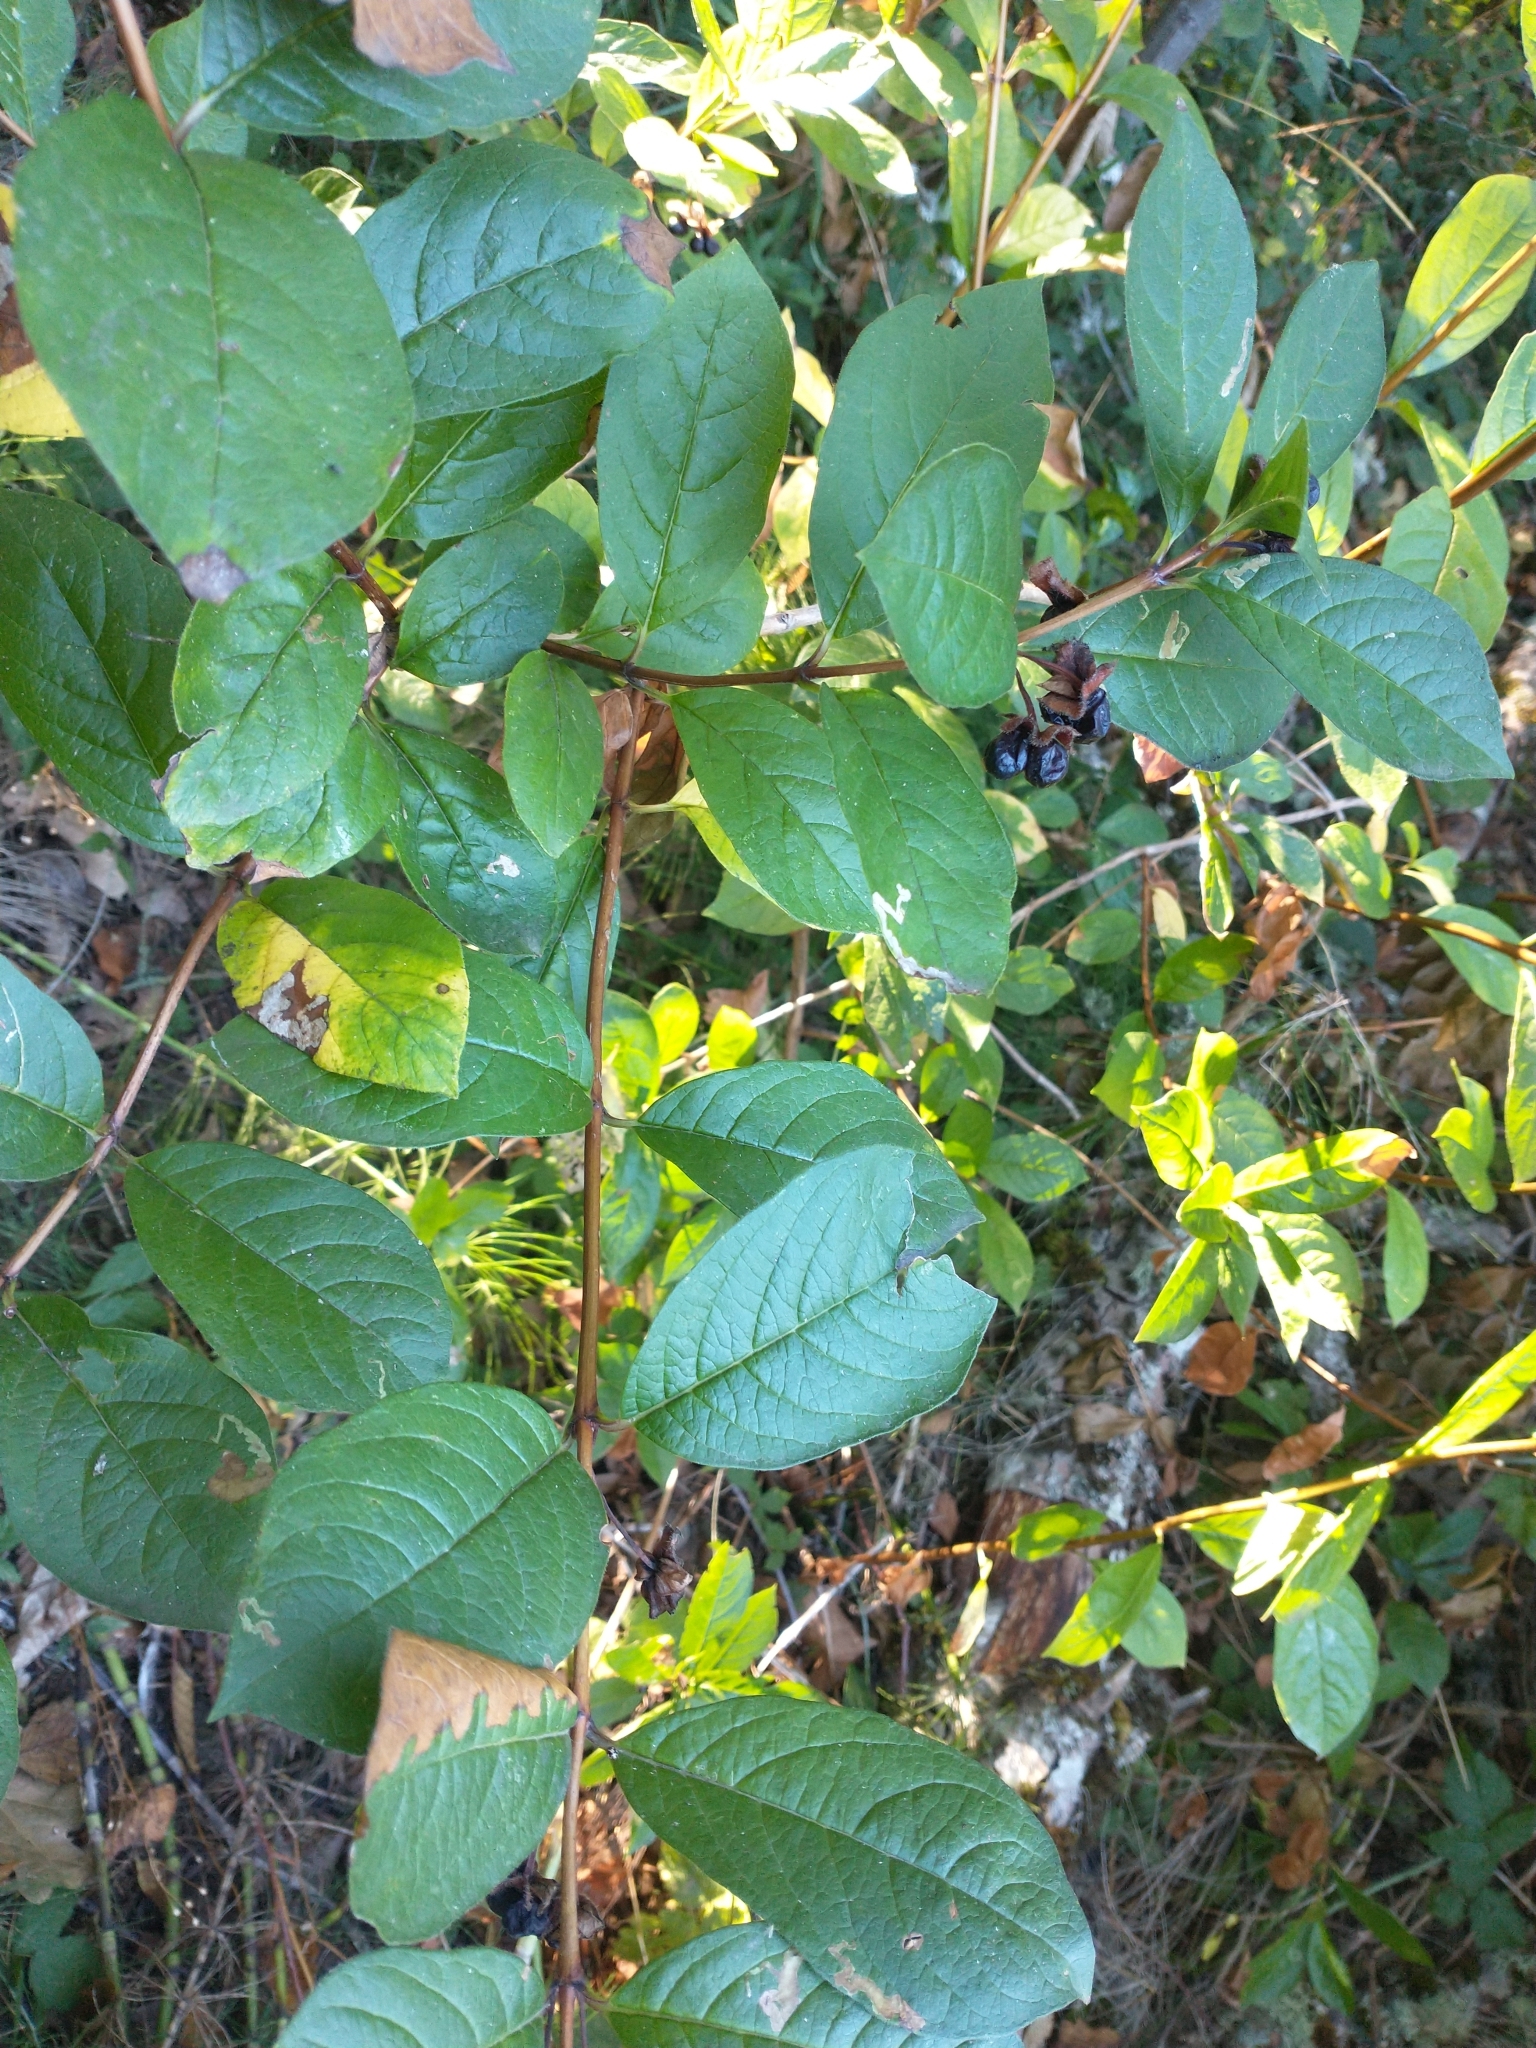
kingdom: Plantae
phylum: Tracheophyta
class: Magnoliopsida
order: Dipsacales
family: Caprifoliaceae
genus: Lonicera
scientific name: Lonicera involucrata
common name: Californian honeysuckle
